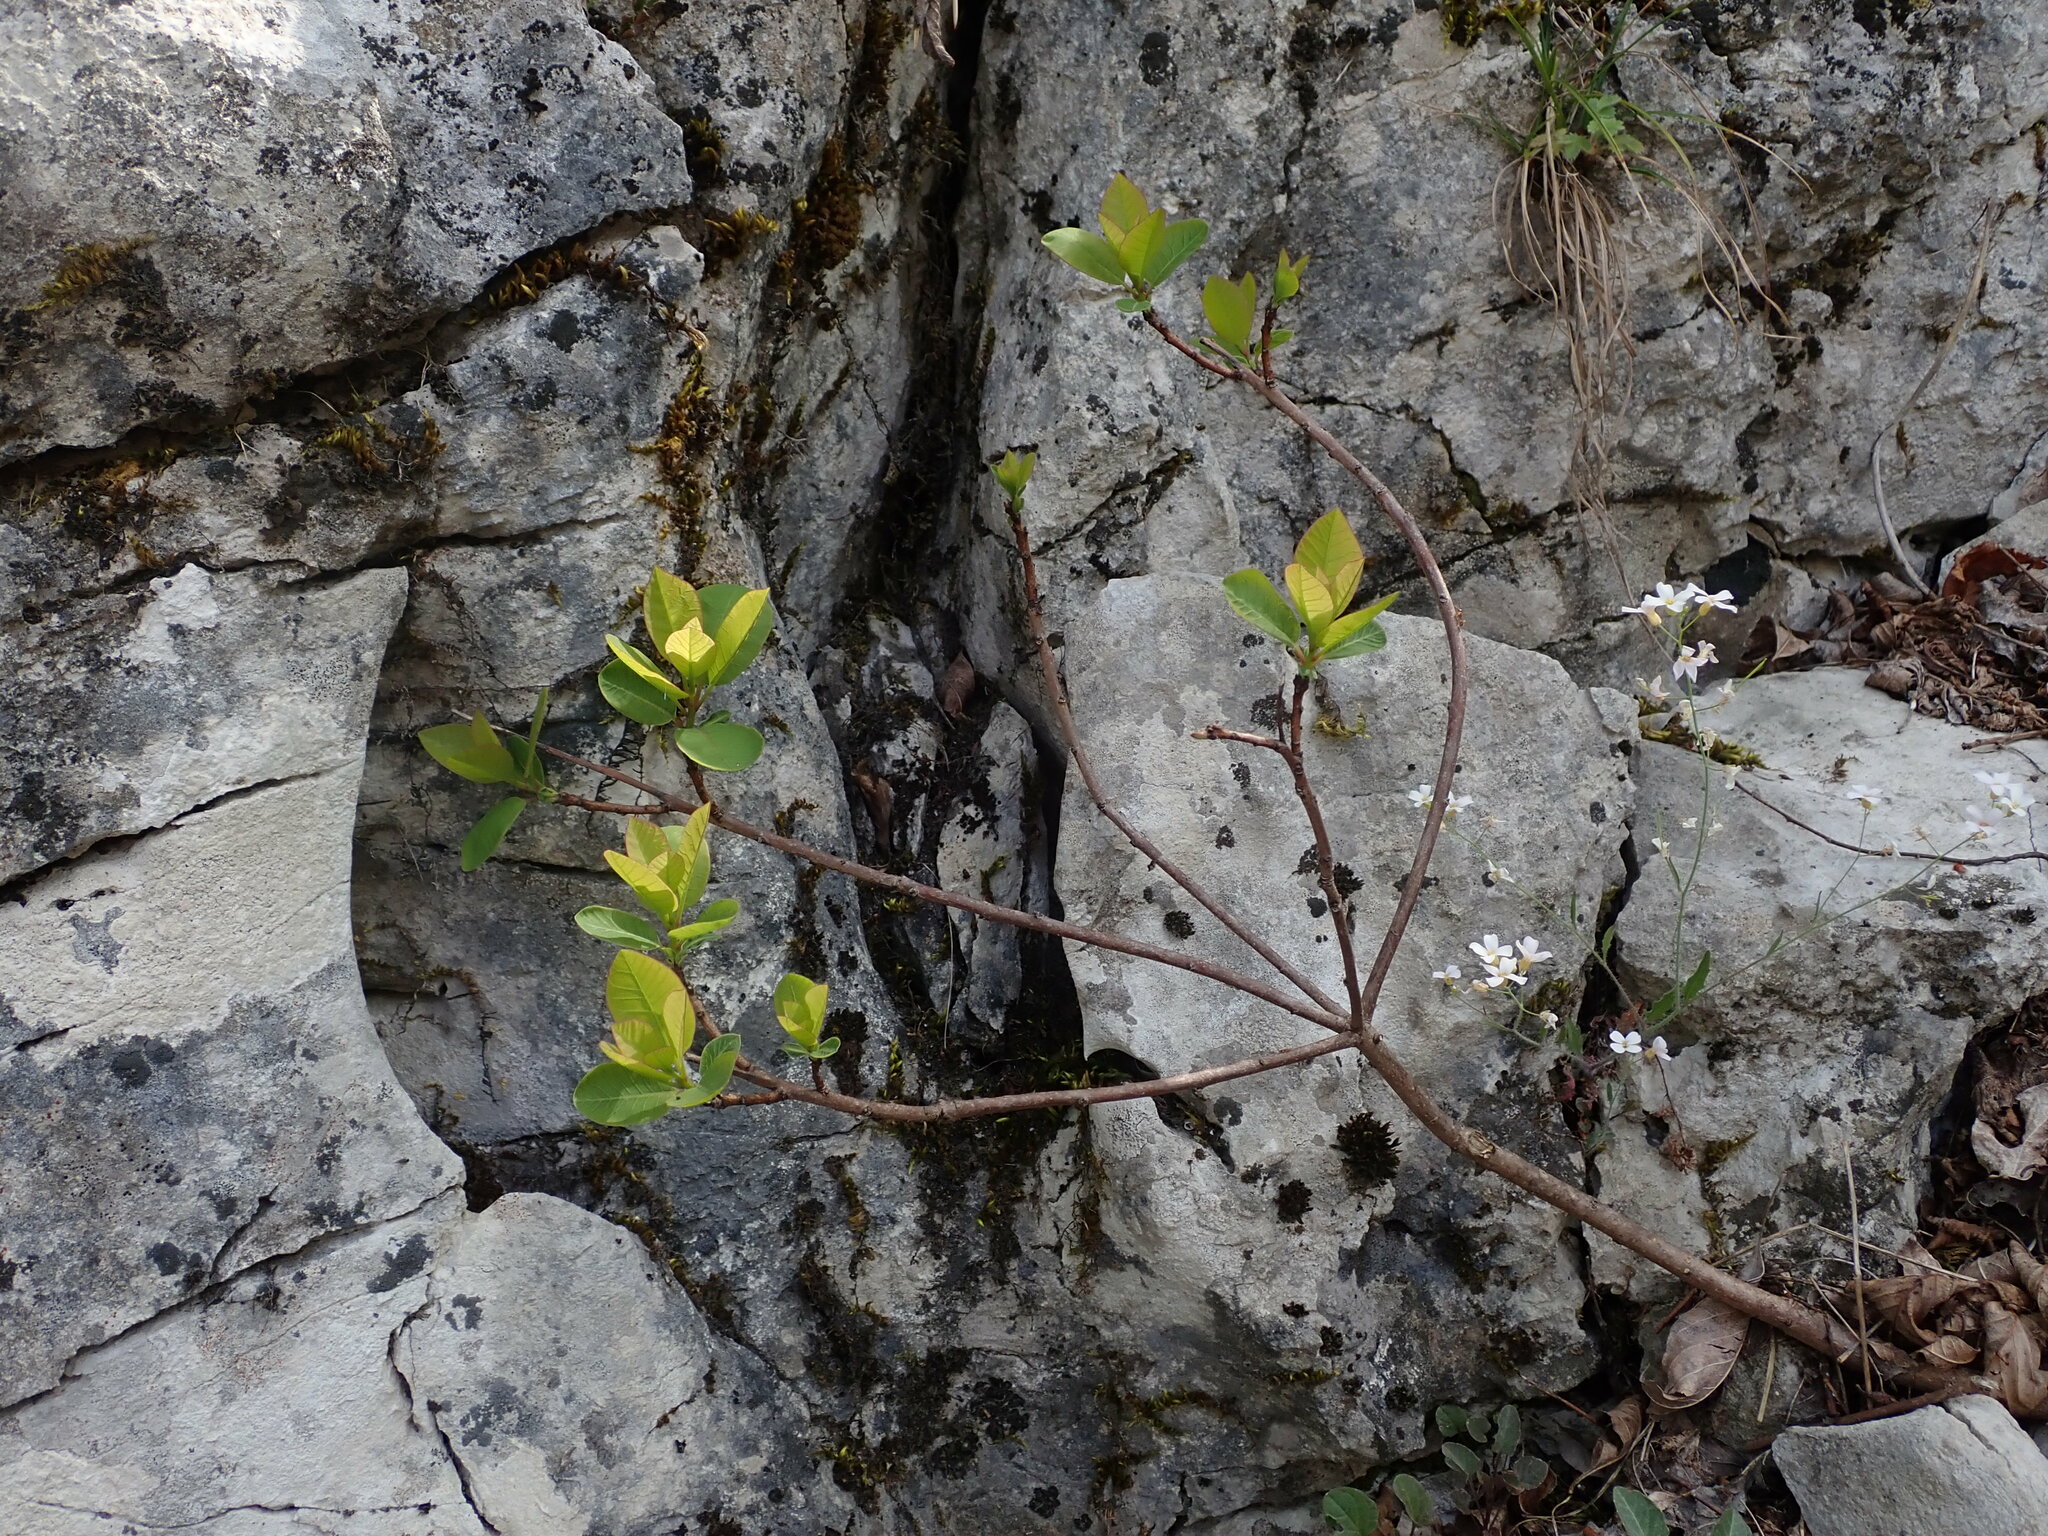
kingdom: Plantae
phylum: Tracheophyta
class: Magnoliopsida
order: Sapindales
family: Anacardiaceae
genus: Cotinus
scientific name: Cotinus coggygria
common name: Smoke-tree
